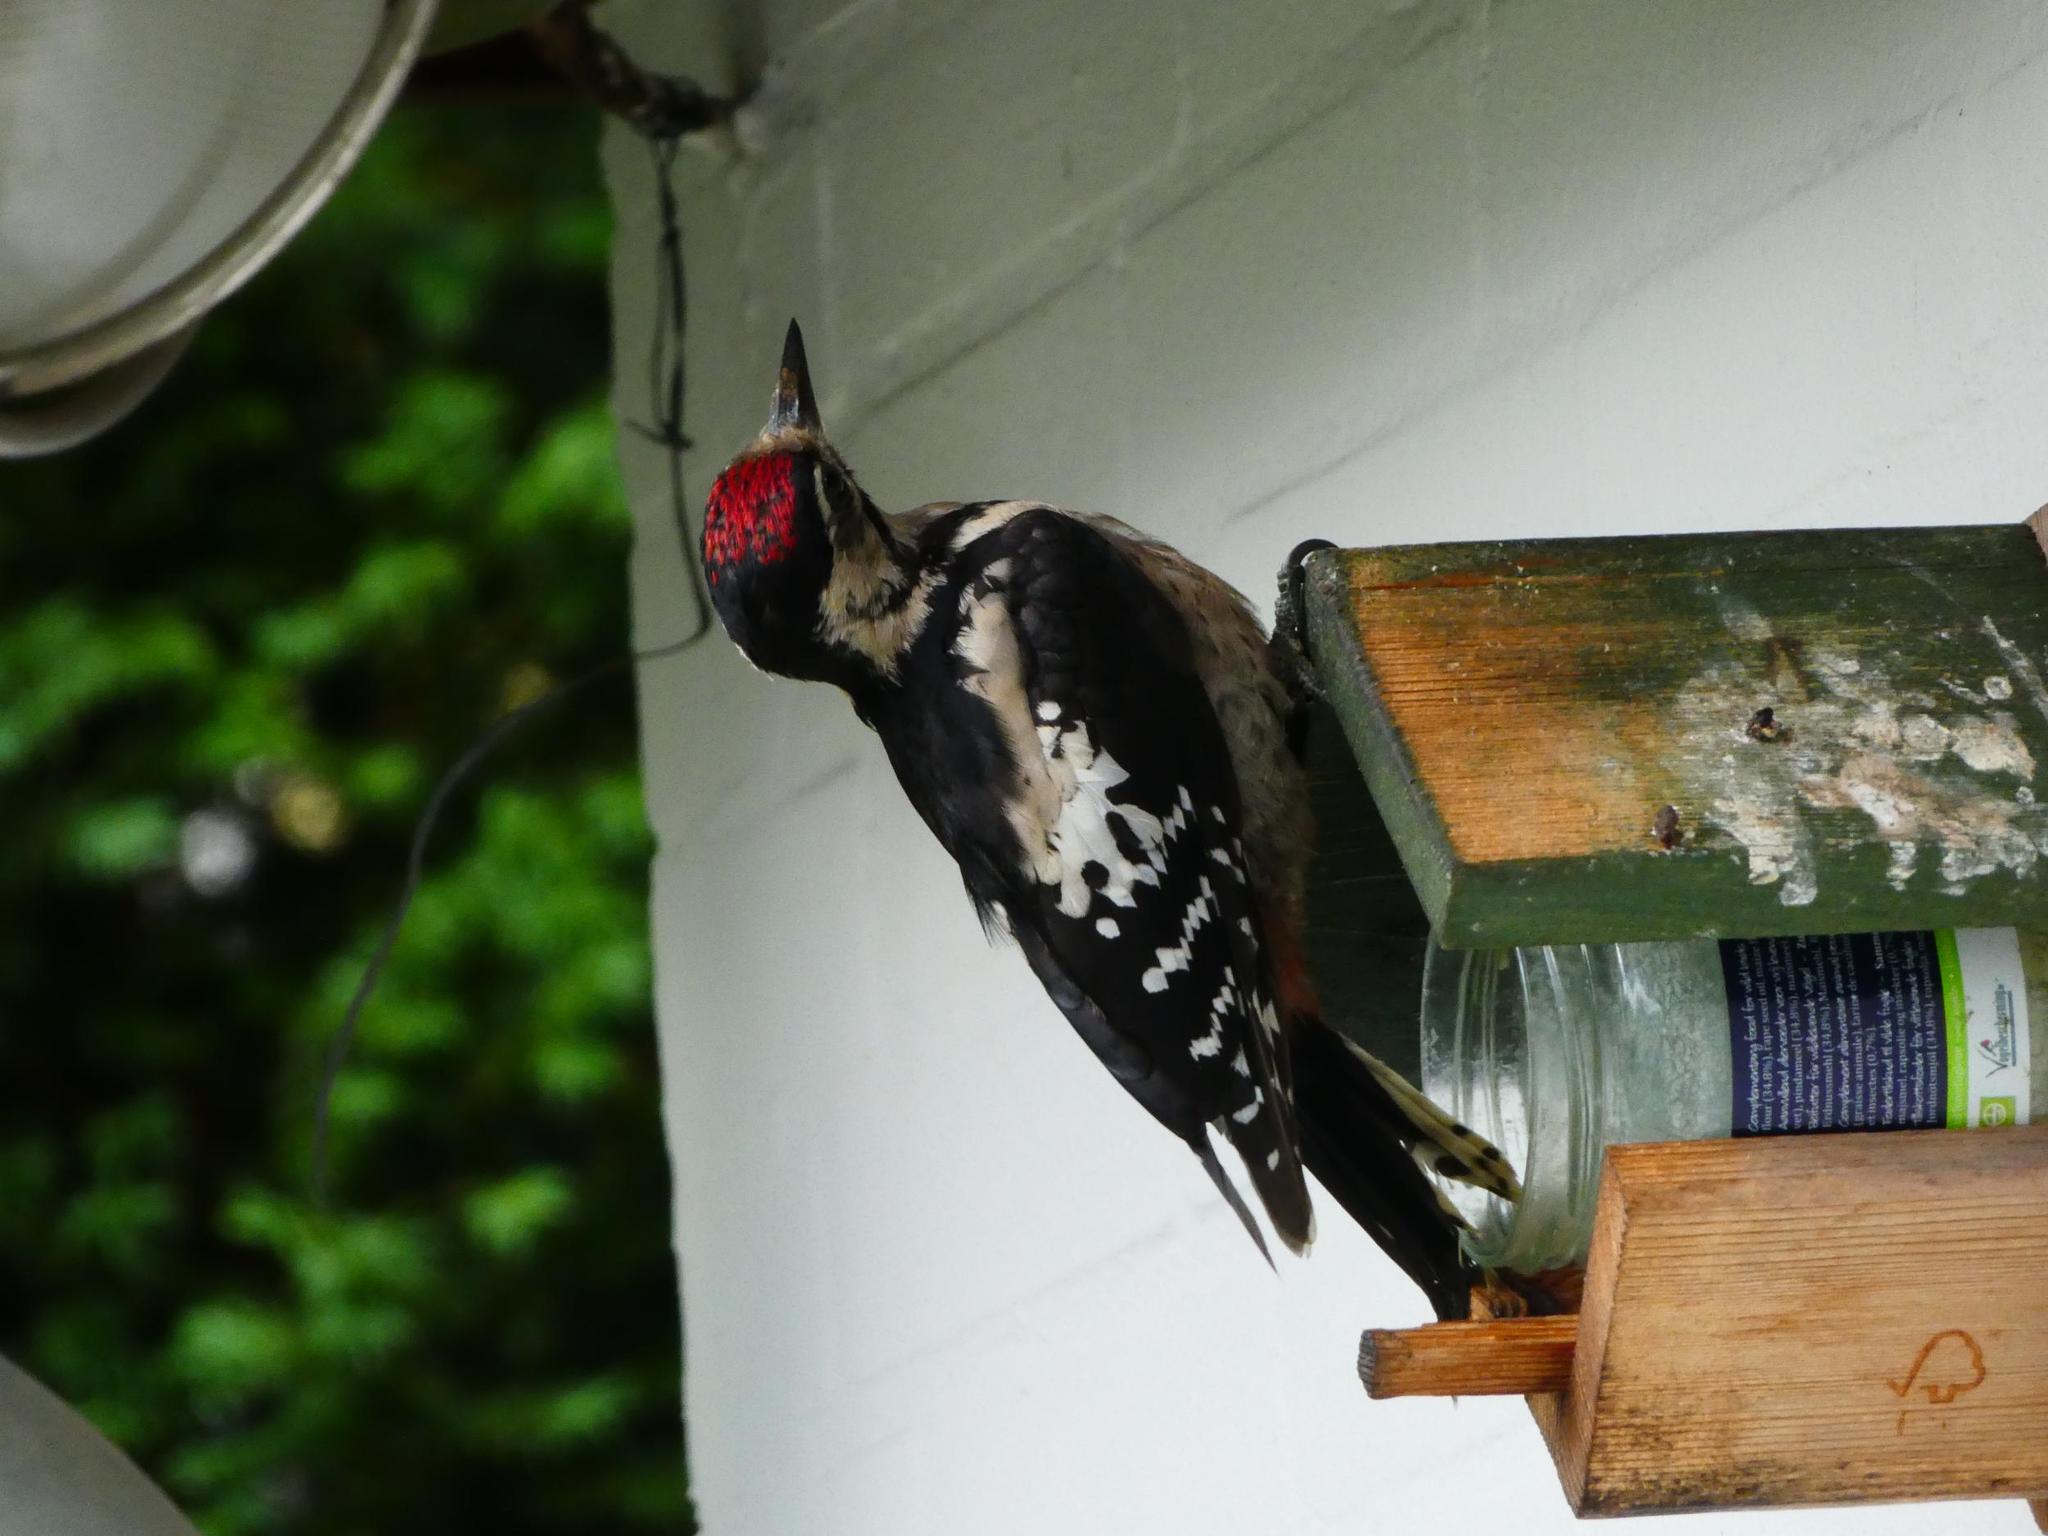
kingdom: Animalia
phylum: Chordata
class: Aves
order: Piciformes
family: Picidae
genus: Dendrocopos
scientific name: Dendrocopos major
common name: Great spotted woodpecker
